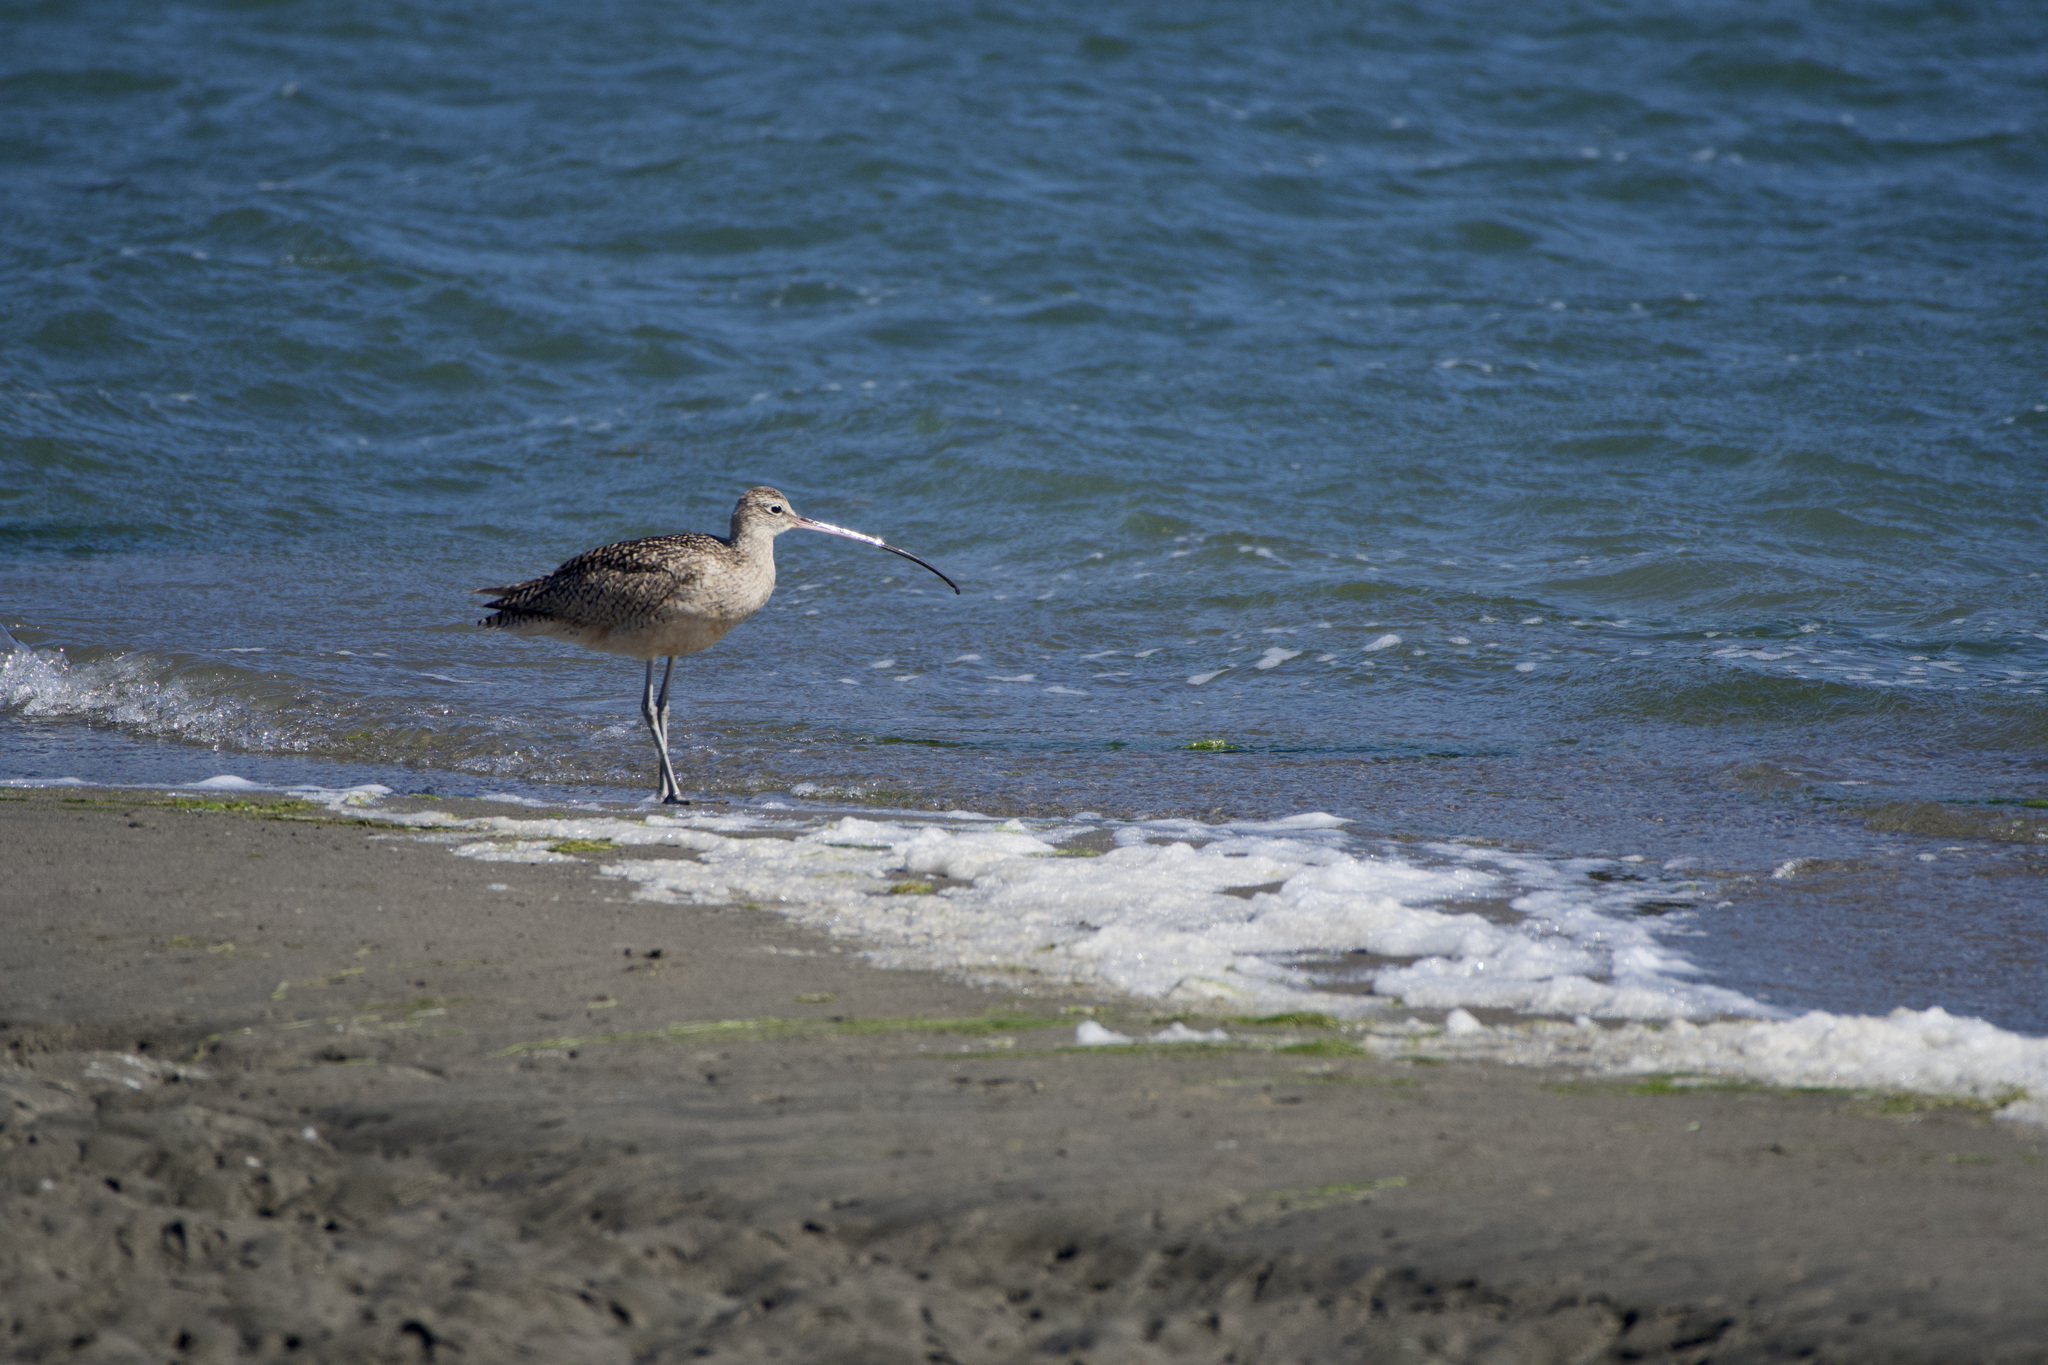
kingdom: Animalia
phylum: Chordata
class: Aves
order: Charadriiformes
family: Scolopacidae
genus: Numenius
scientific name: Numenius americanus
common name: Long-billed curlew
